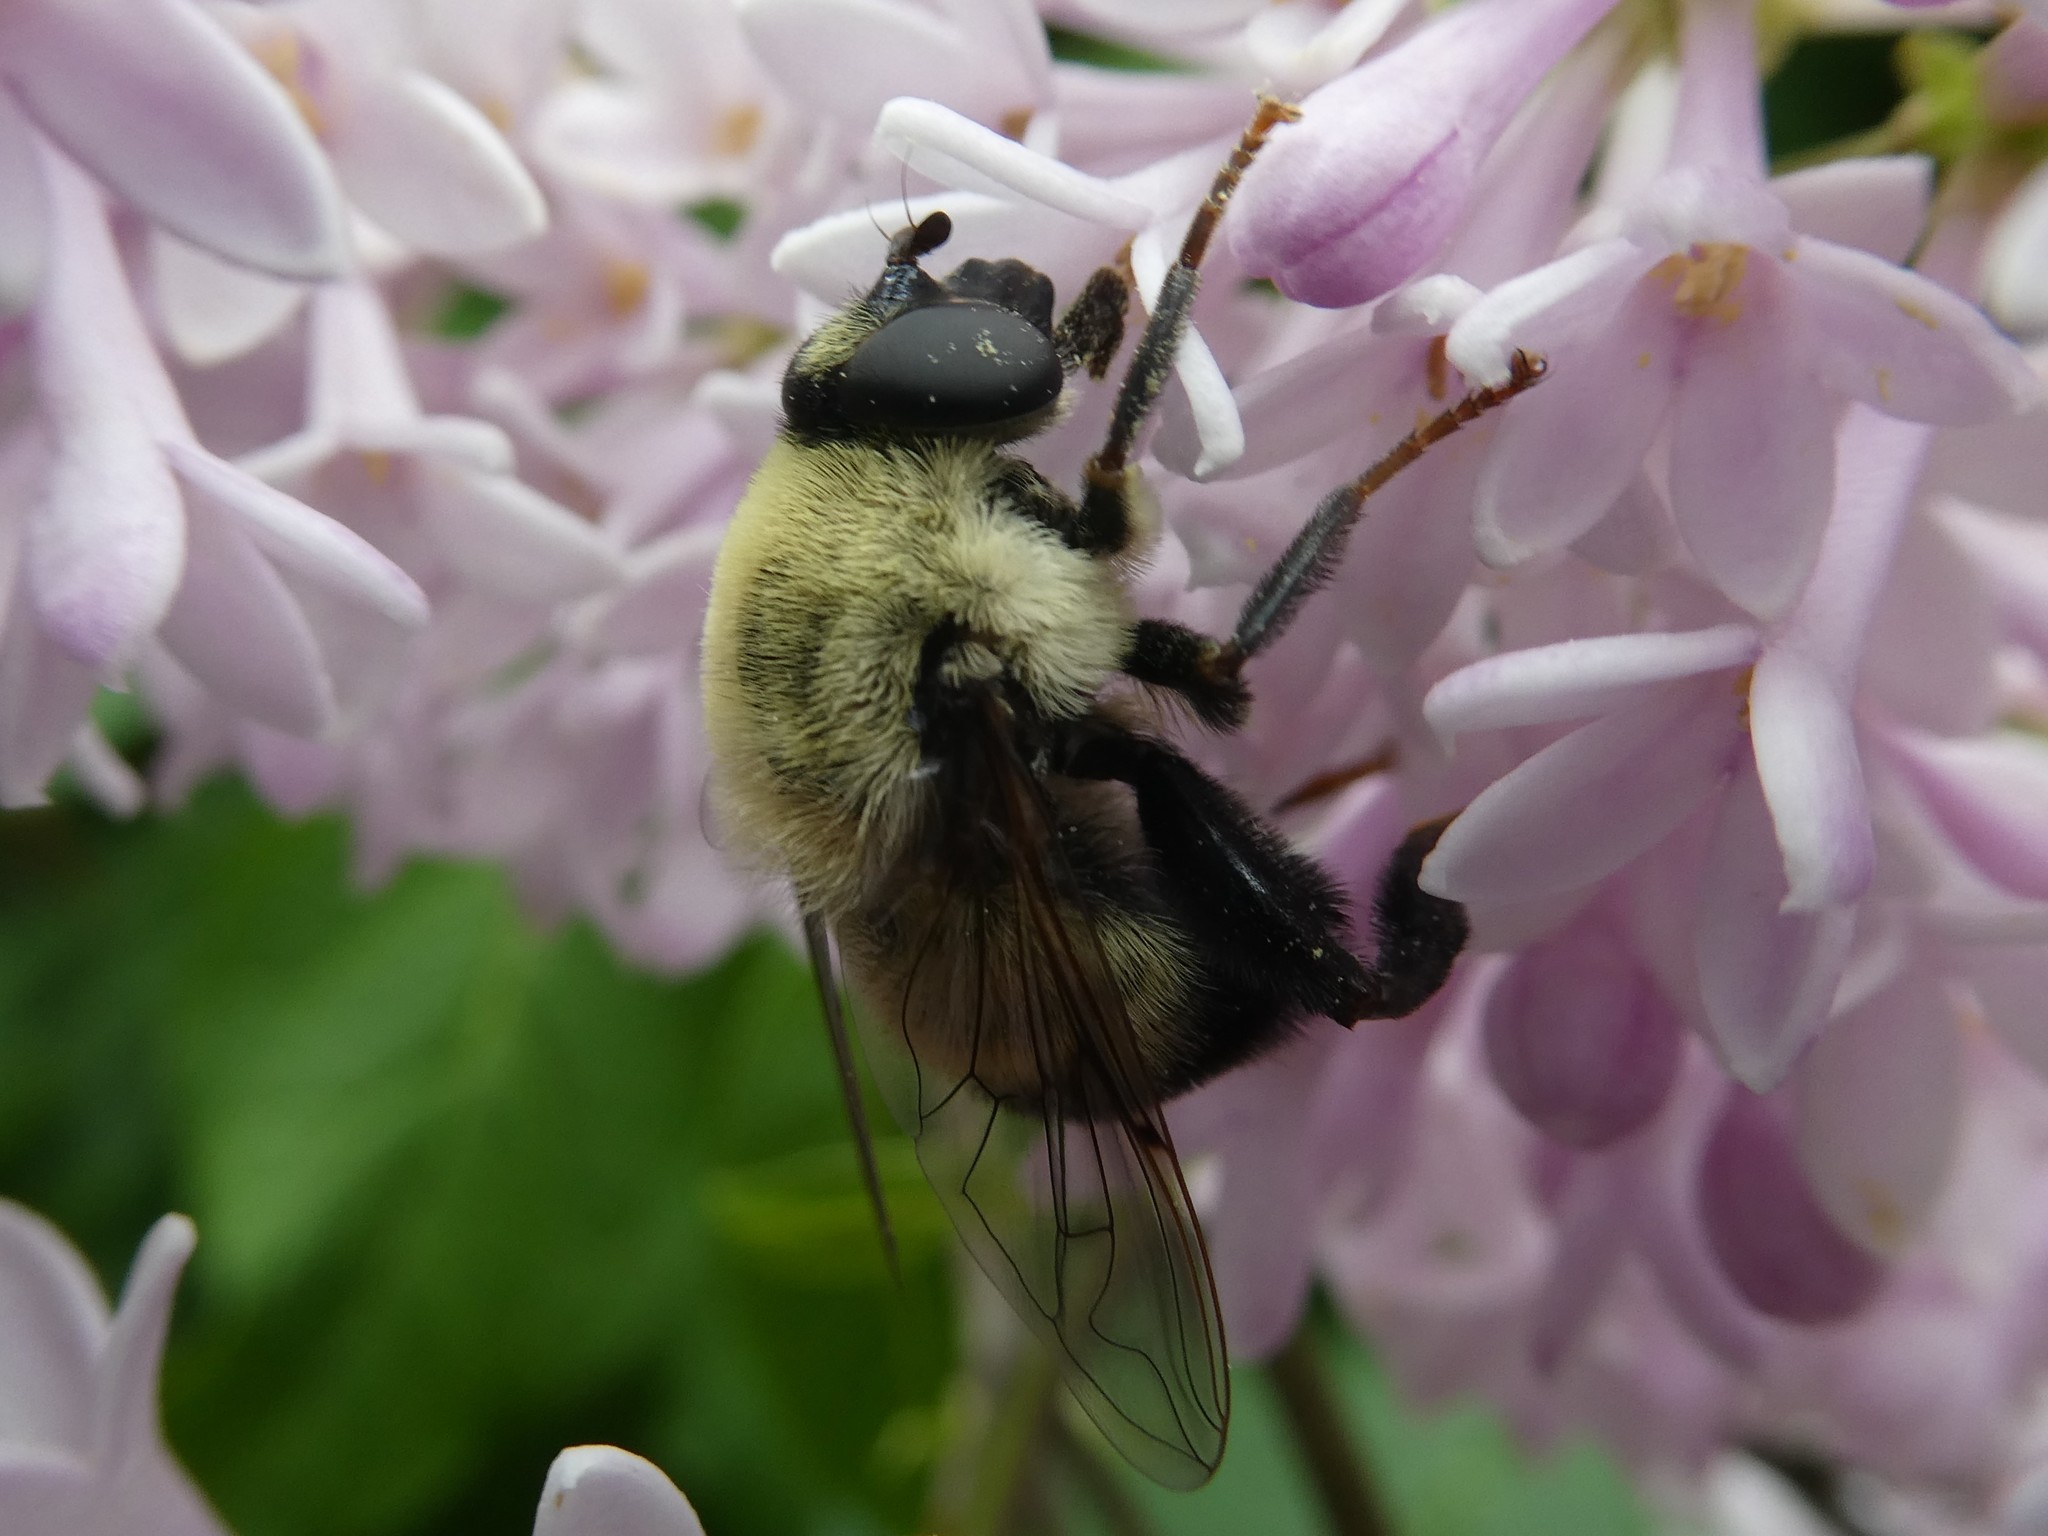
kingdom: Animalia
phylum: Arthropoda
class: Insecta
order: Diptera
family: Syrphidae
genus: Imatisma
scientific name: Imatisma posticata
